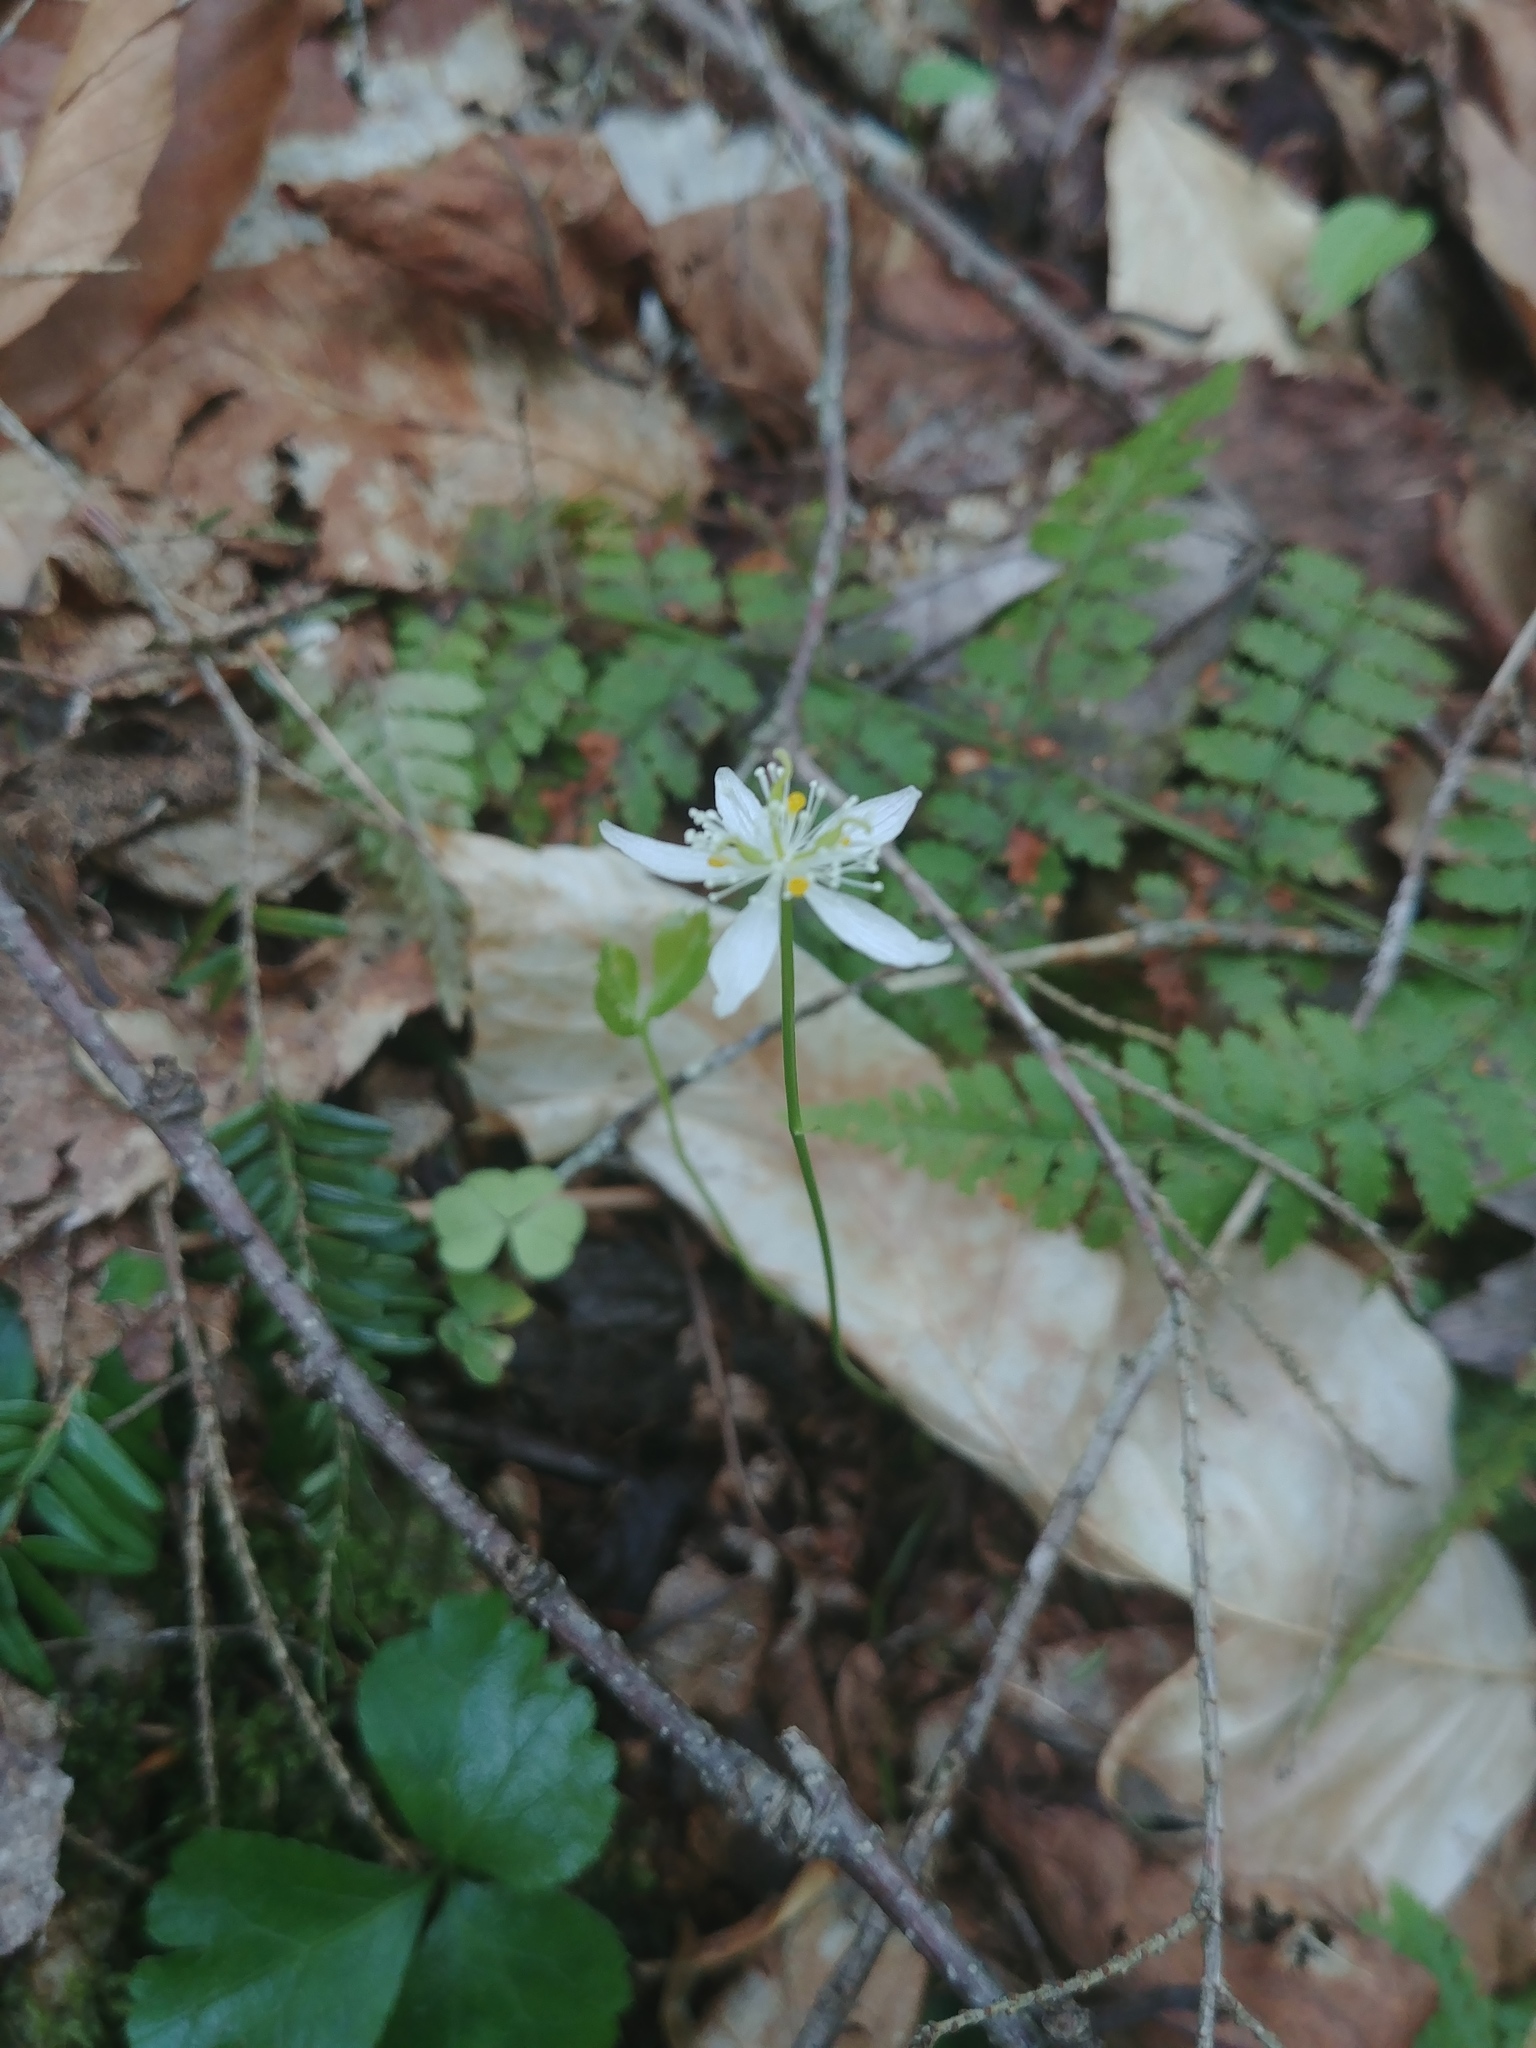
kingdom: Plantae
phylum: Tracheophyta
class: Magnoliopsida
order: Ranunculales
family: Ranunculaceae
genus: Coptis
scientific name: Coptis trifolia
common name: Canker-root
